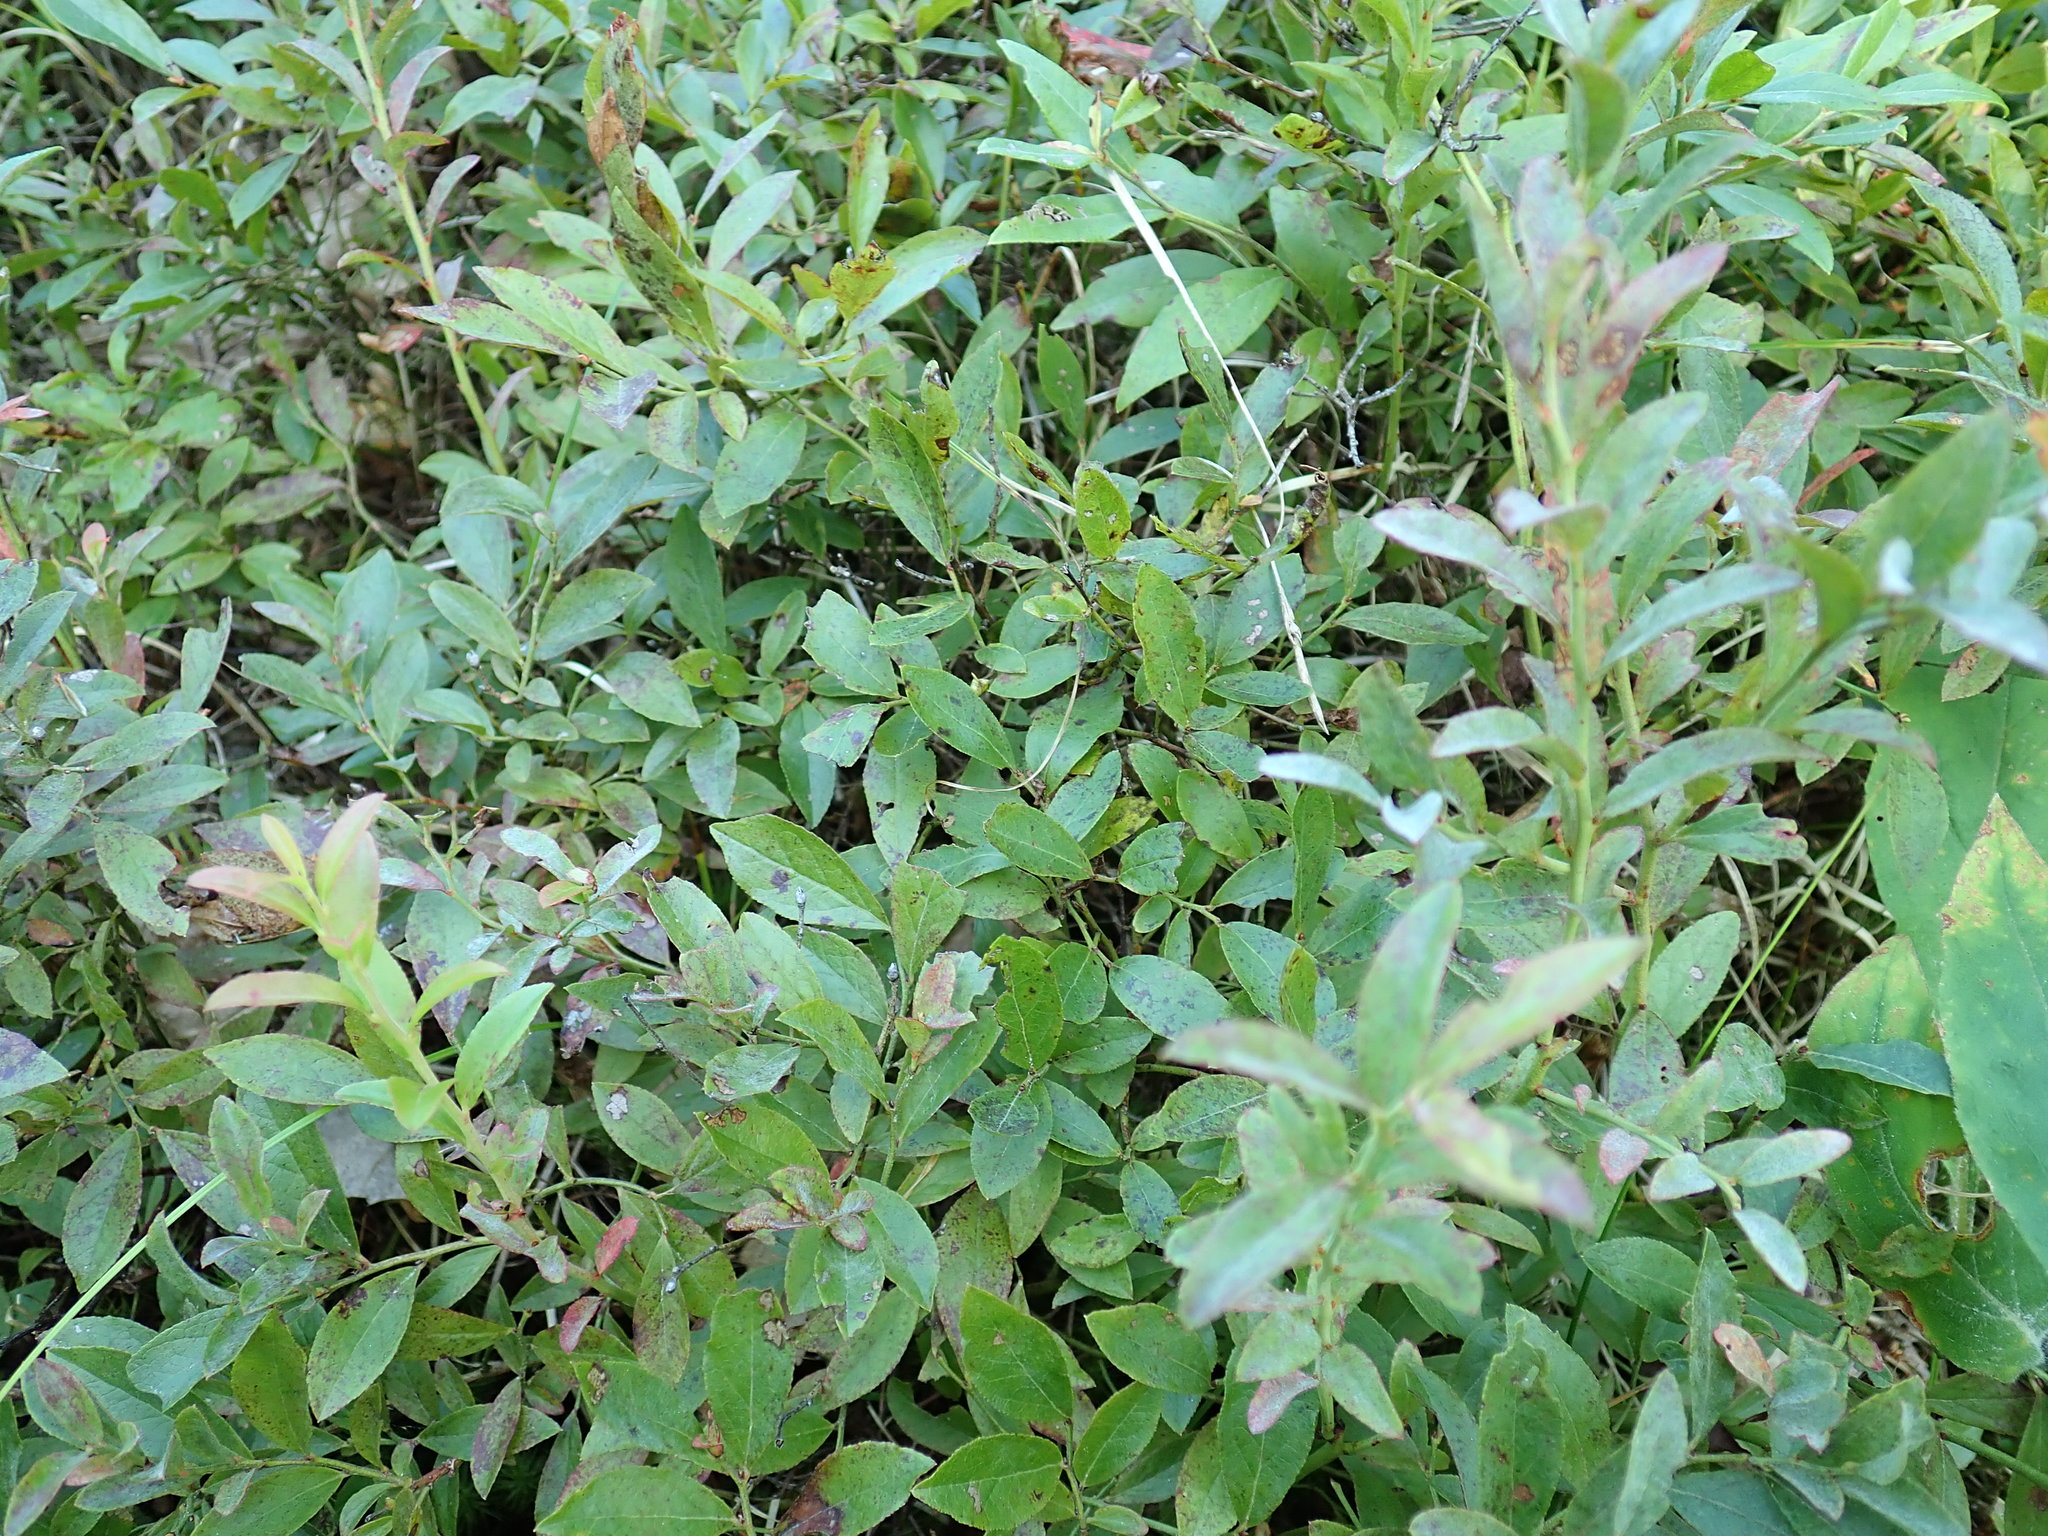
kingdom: Plantae
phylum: Tracheophyta
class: Magnoliopsida
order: Ericales
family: Ericaceae
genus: Vaccinium
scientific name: Vaccinium angustifolium
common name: Early lowbush blueberry
